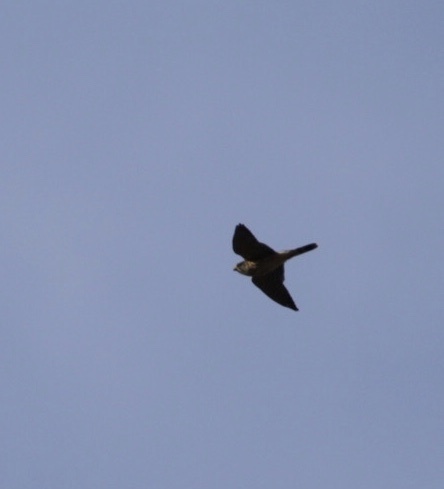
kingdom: Animalia
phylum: Chordata
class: Aves
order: Falconiformes
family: Falconidae
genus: Falco
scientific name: Falco columbarius
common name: Merlin
